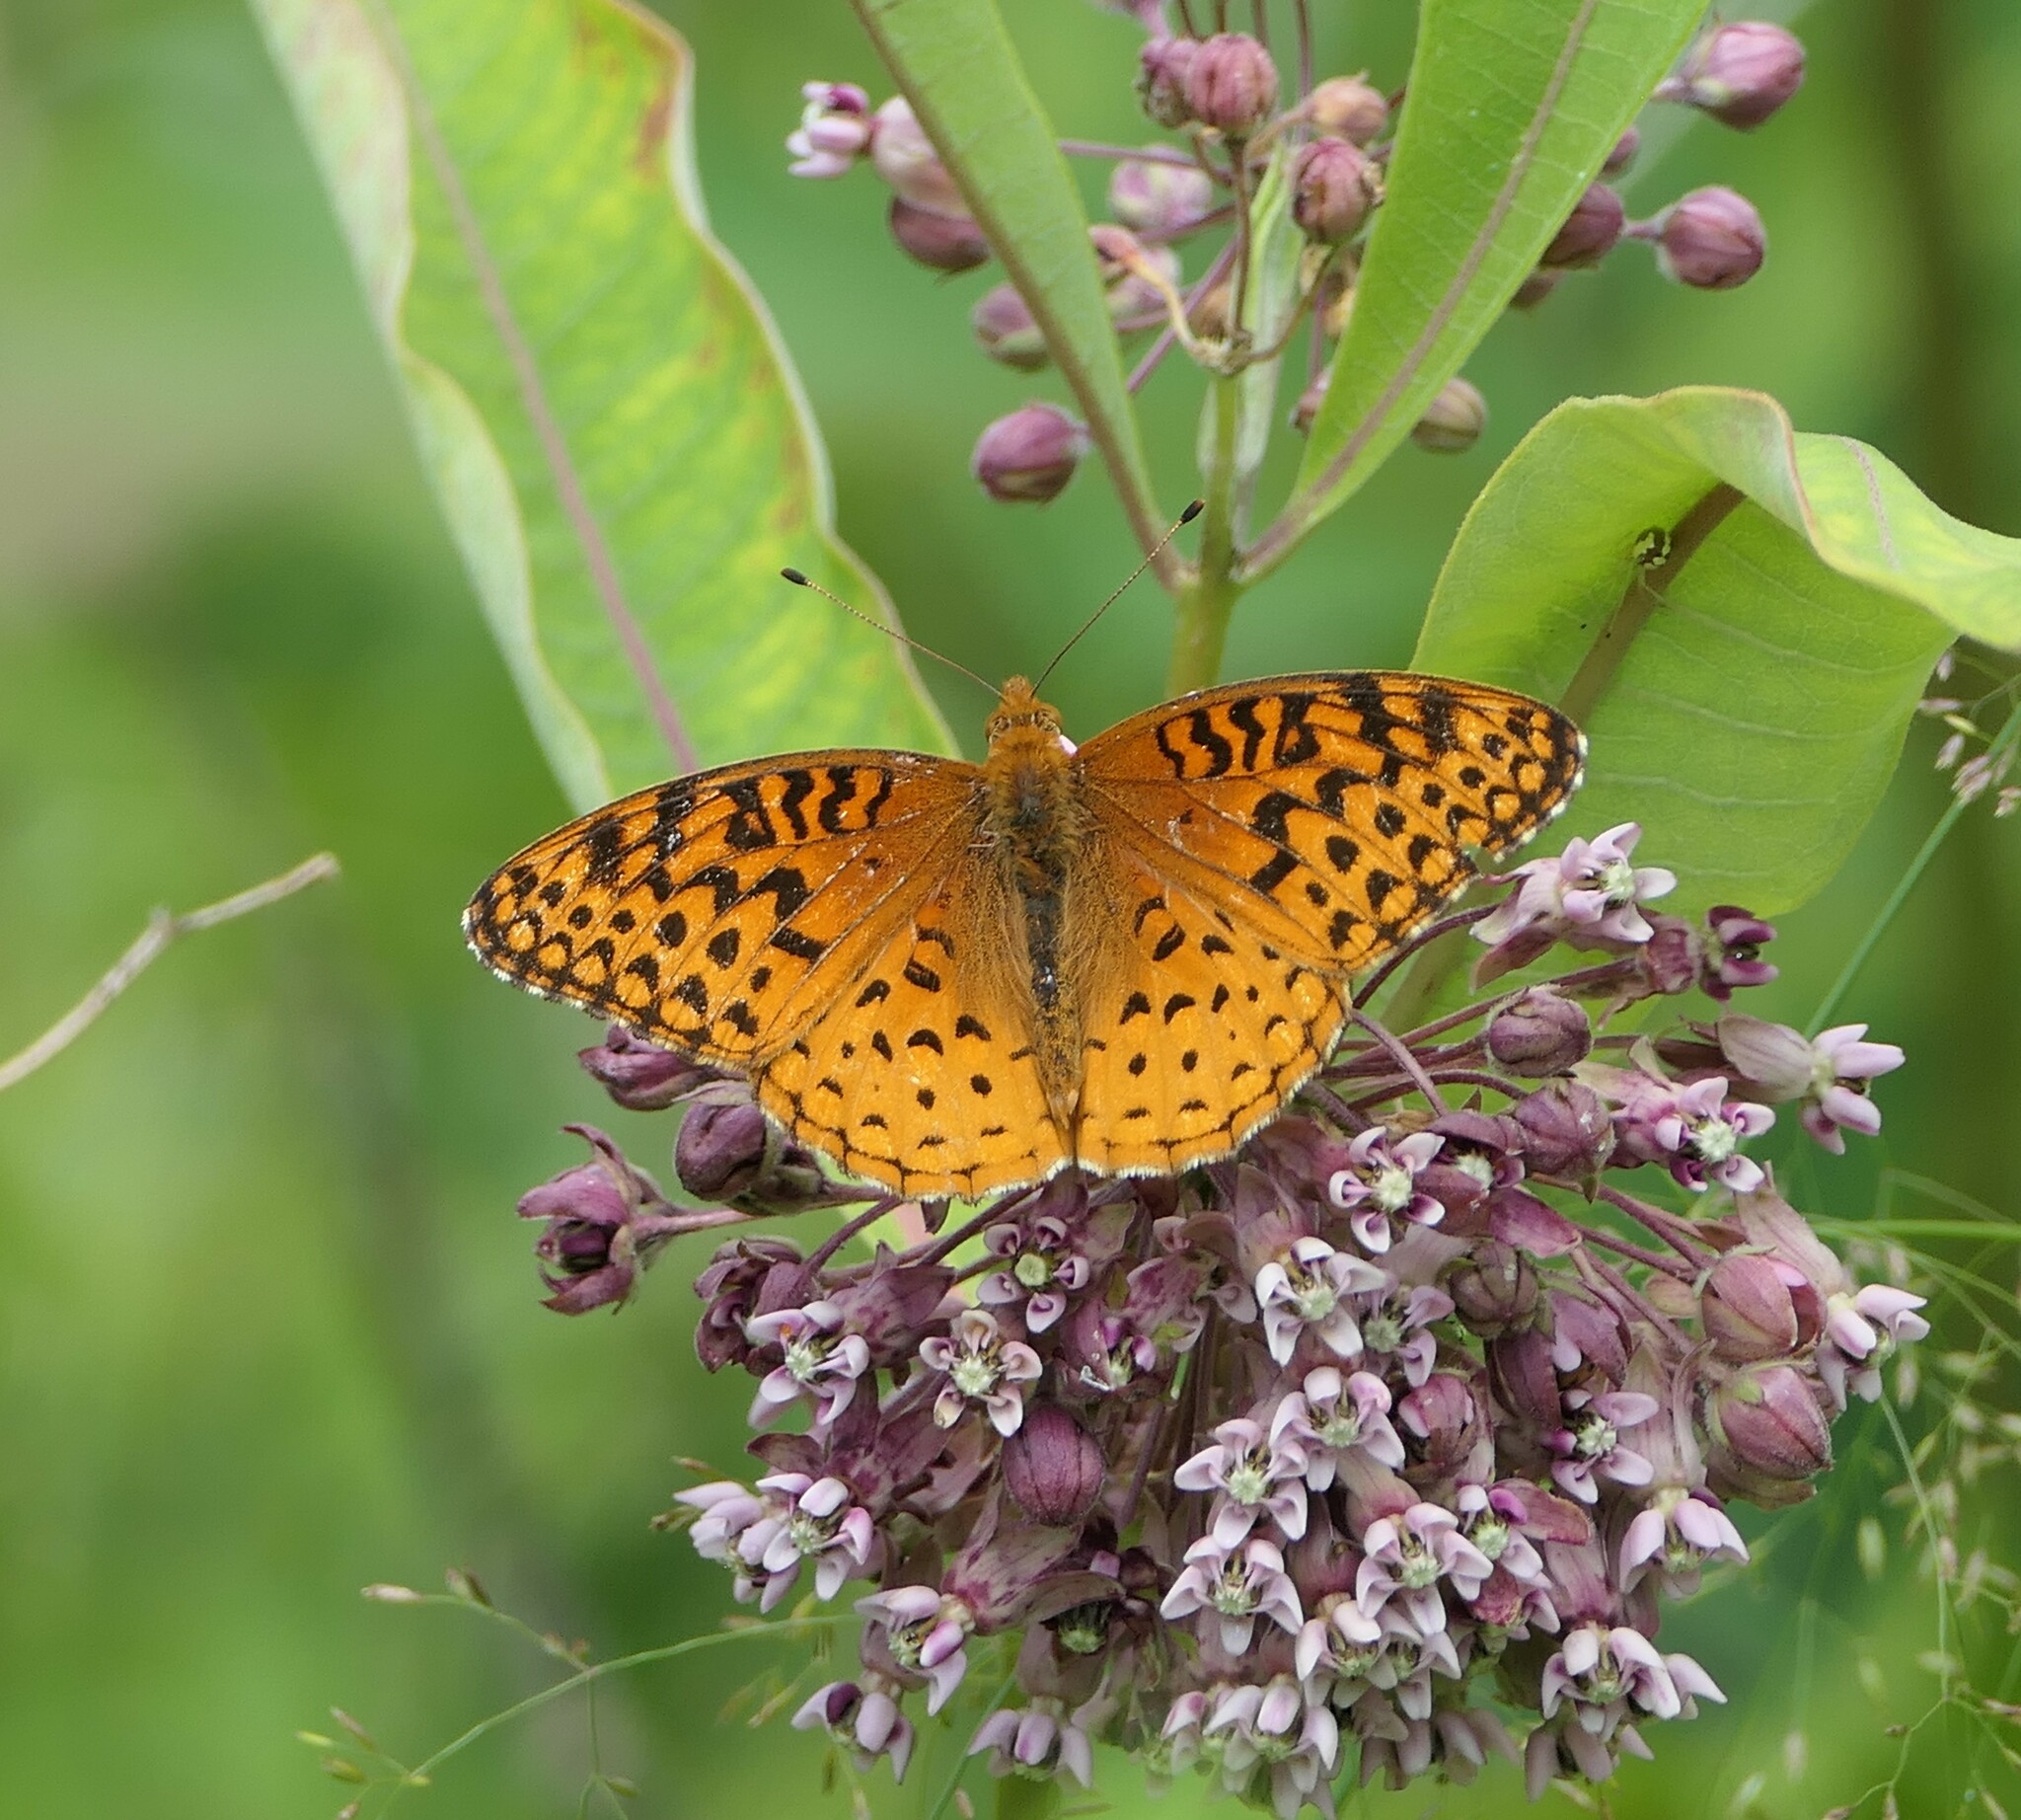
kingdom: Animalia
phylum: Arthropoda
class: Insecta
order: Lepidoptera
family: Nymphalidae
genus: Speyeria
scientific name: Speyeria aphrodite
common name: Aphrodite friitllary
